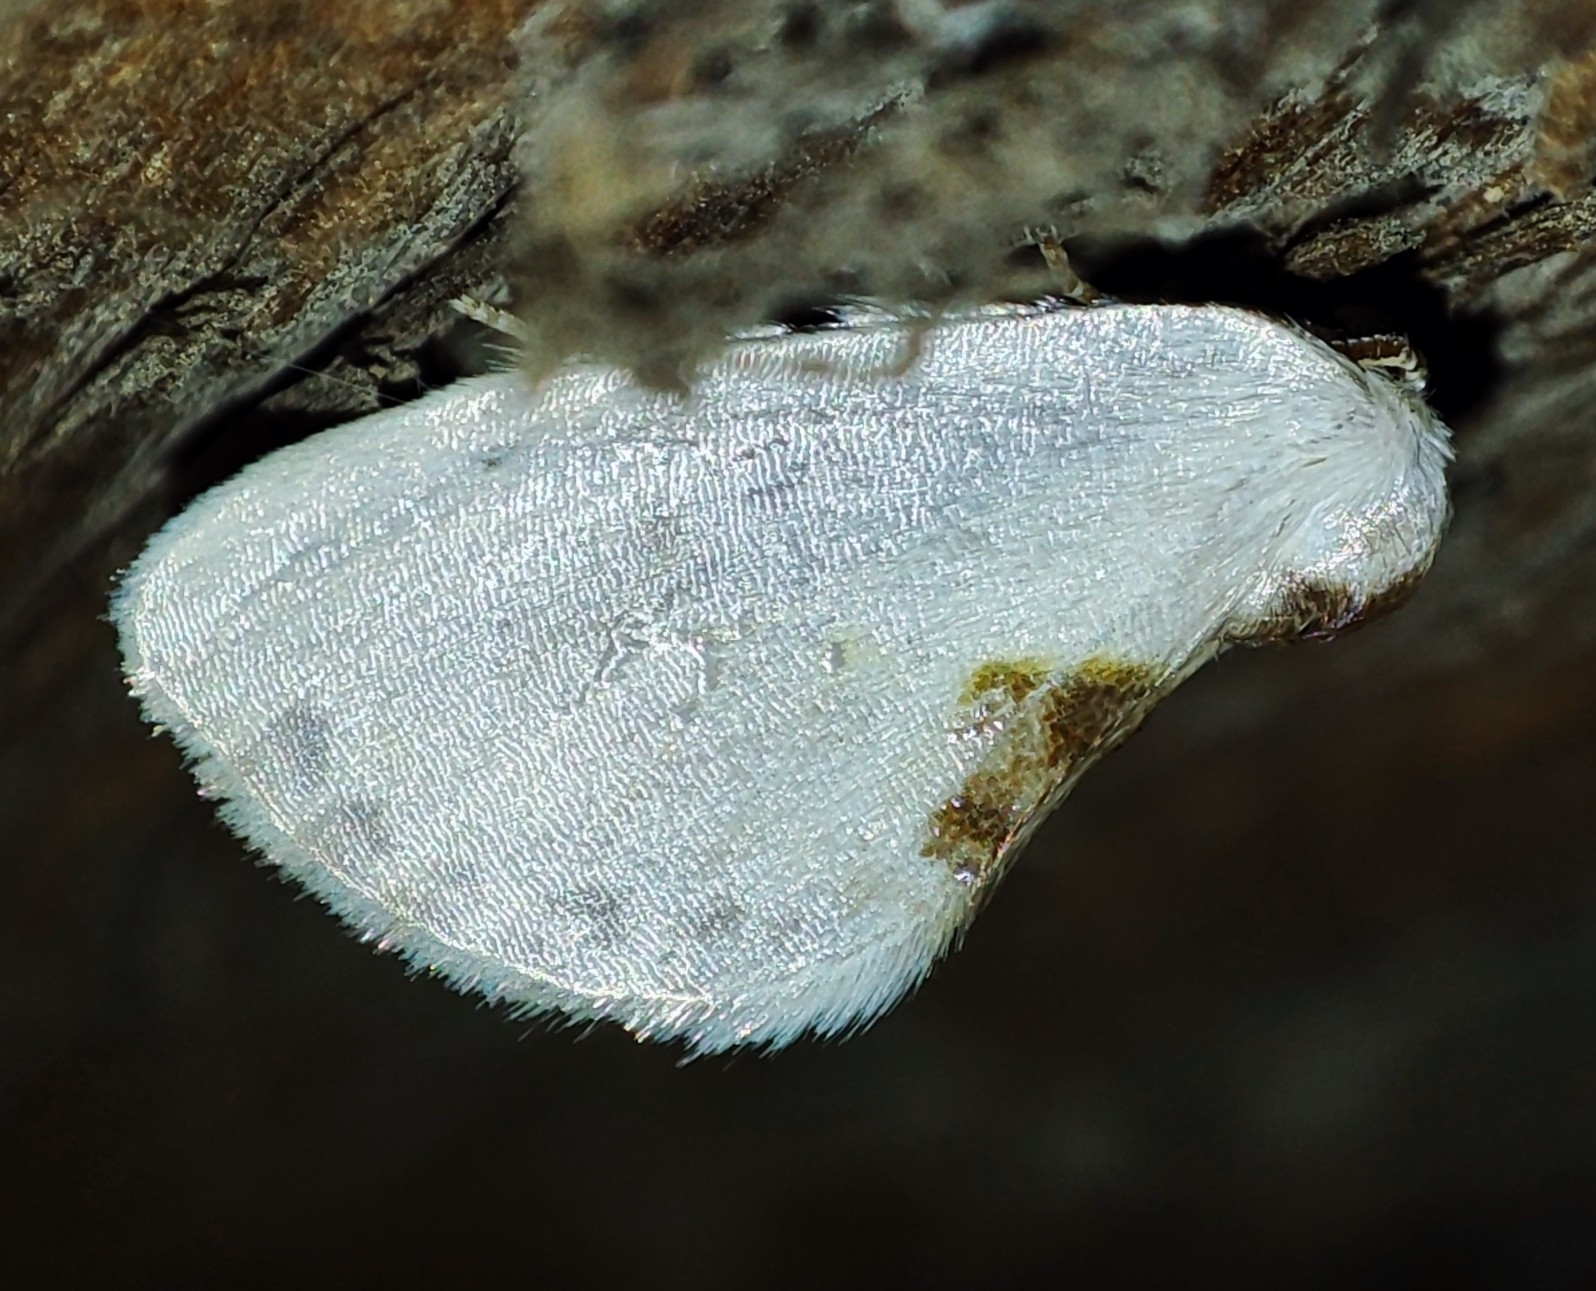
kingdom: Animalia
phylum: Arthropoda
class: Insecta
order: Lepidoptera
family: Drepanidae
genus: Cilix
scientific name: Cilix glaucata
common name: Chinese character
